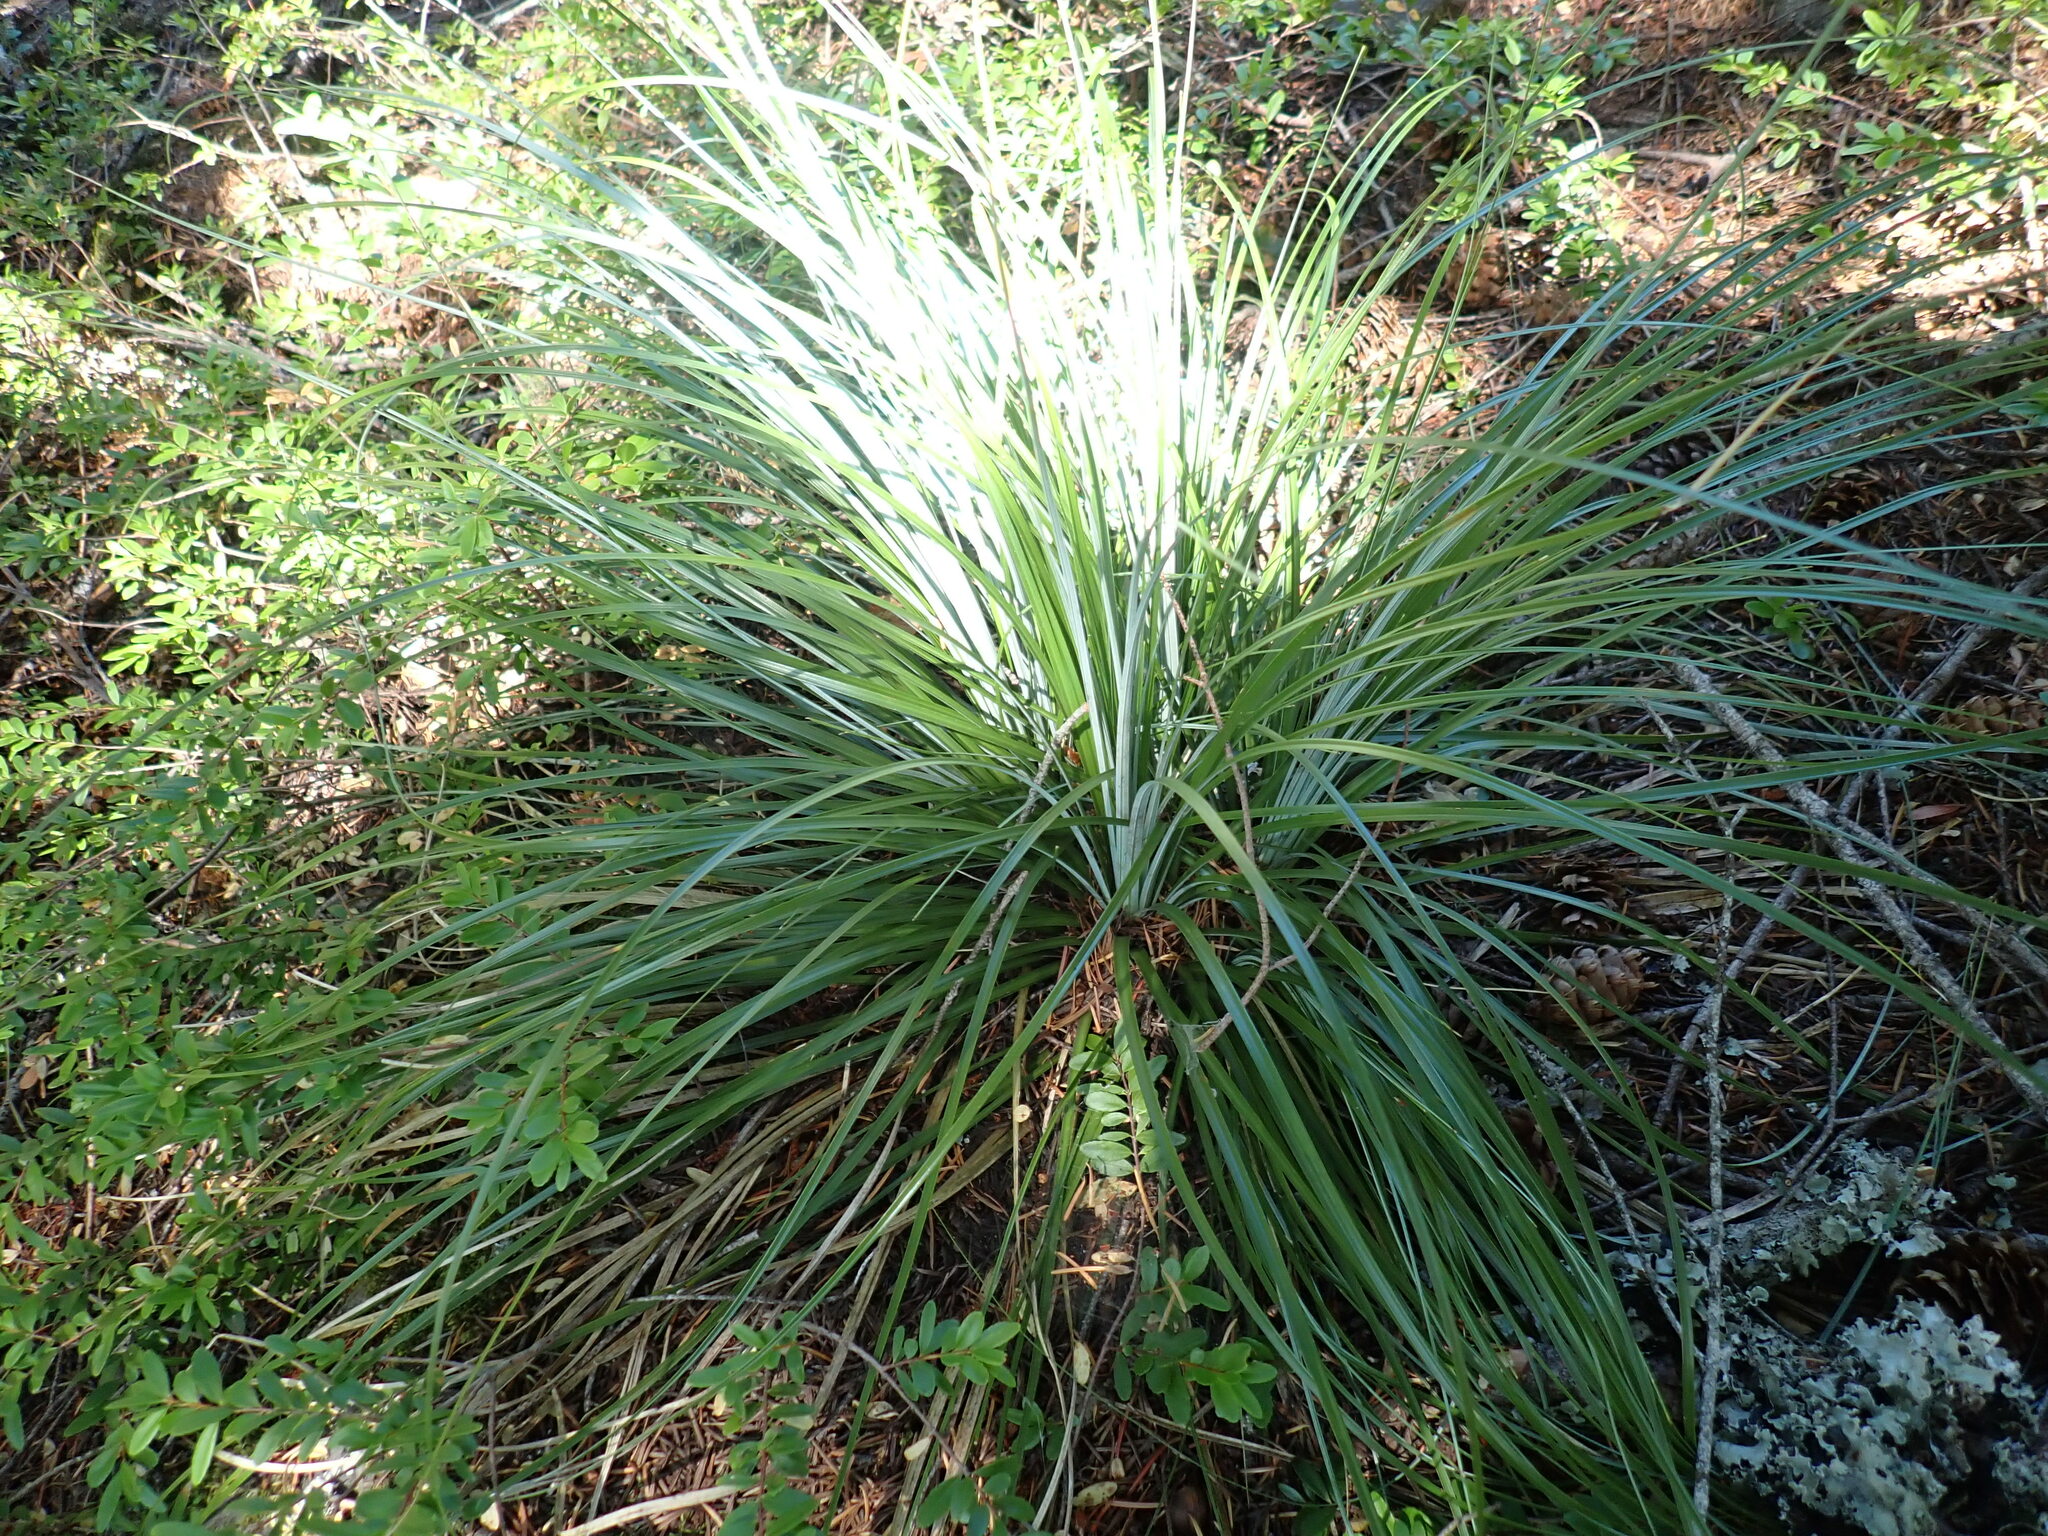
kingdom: Plantae
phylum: Tracheophyta
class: Liliopsida
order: Liliales
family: Melanthiaceae
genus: Xerophyllum
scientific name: Xerophyllum tenax
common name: Bear-grass
